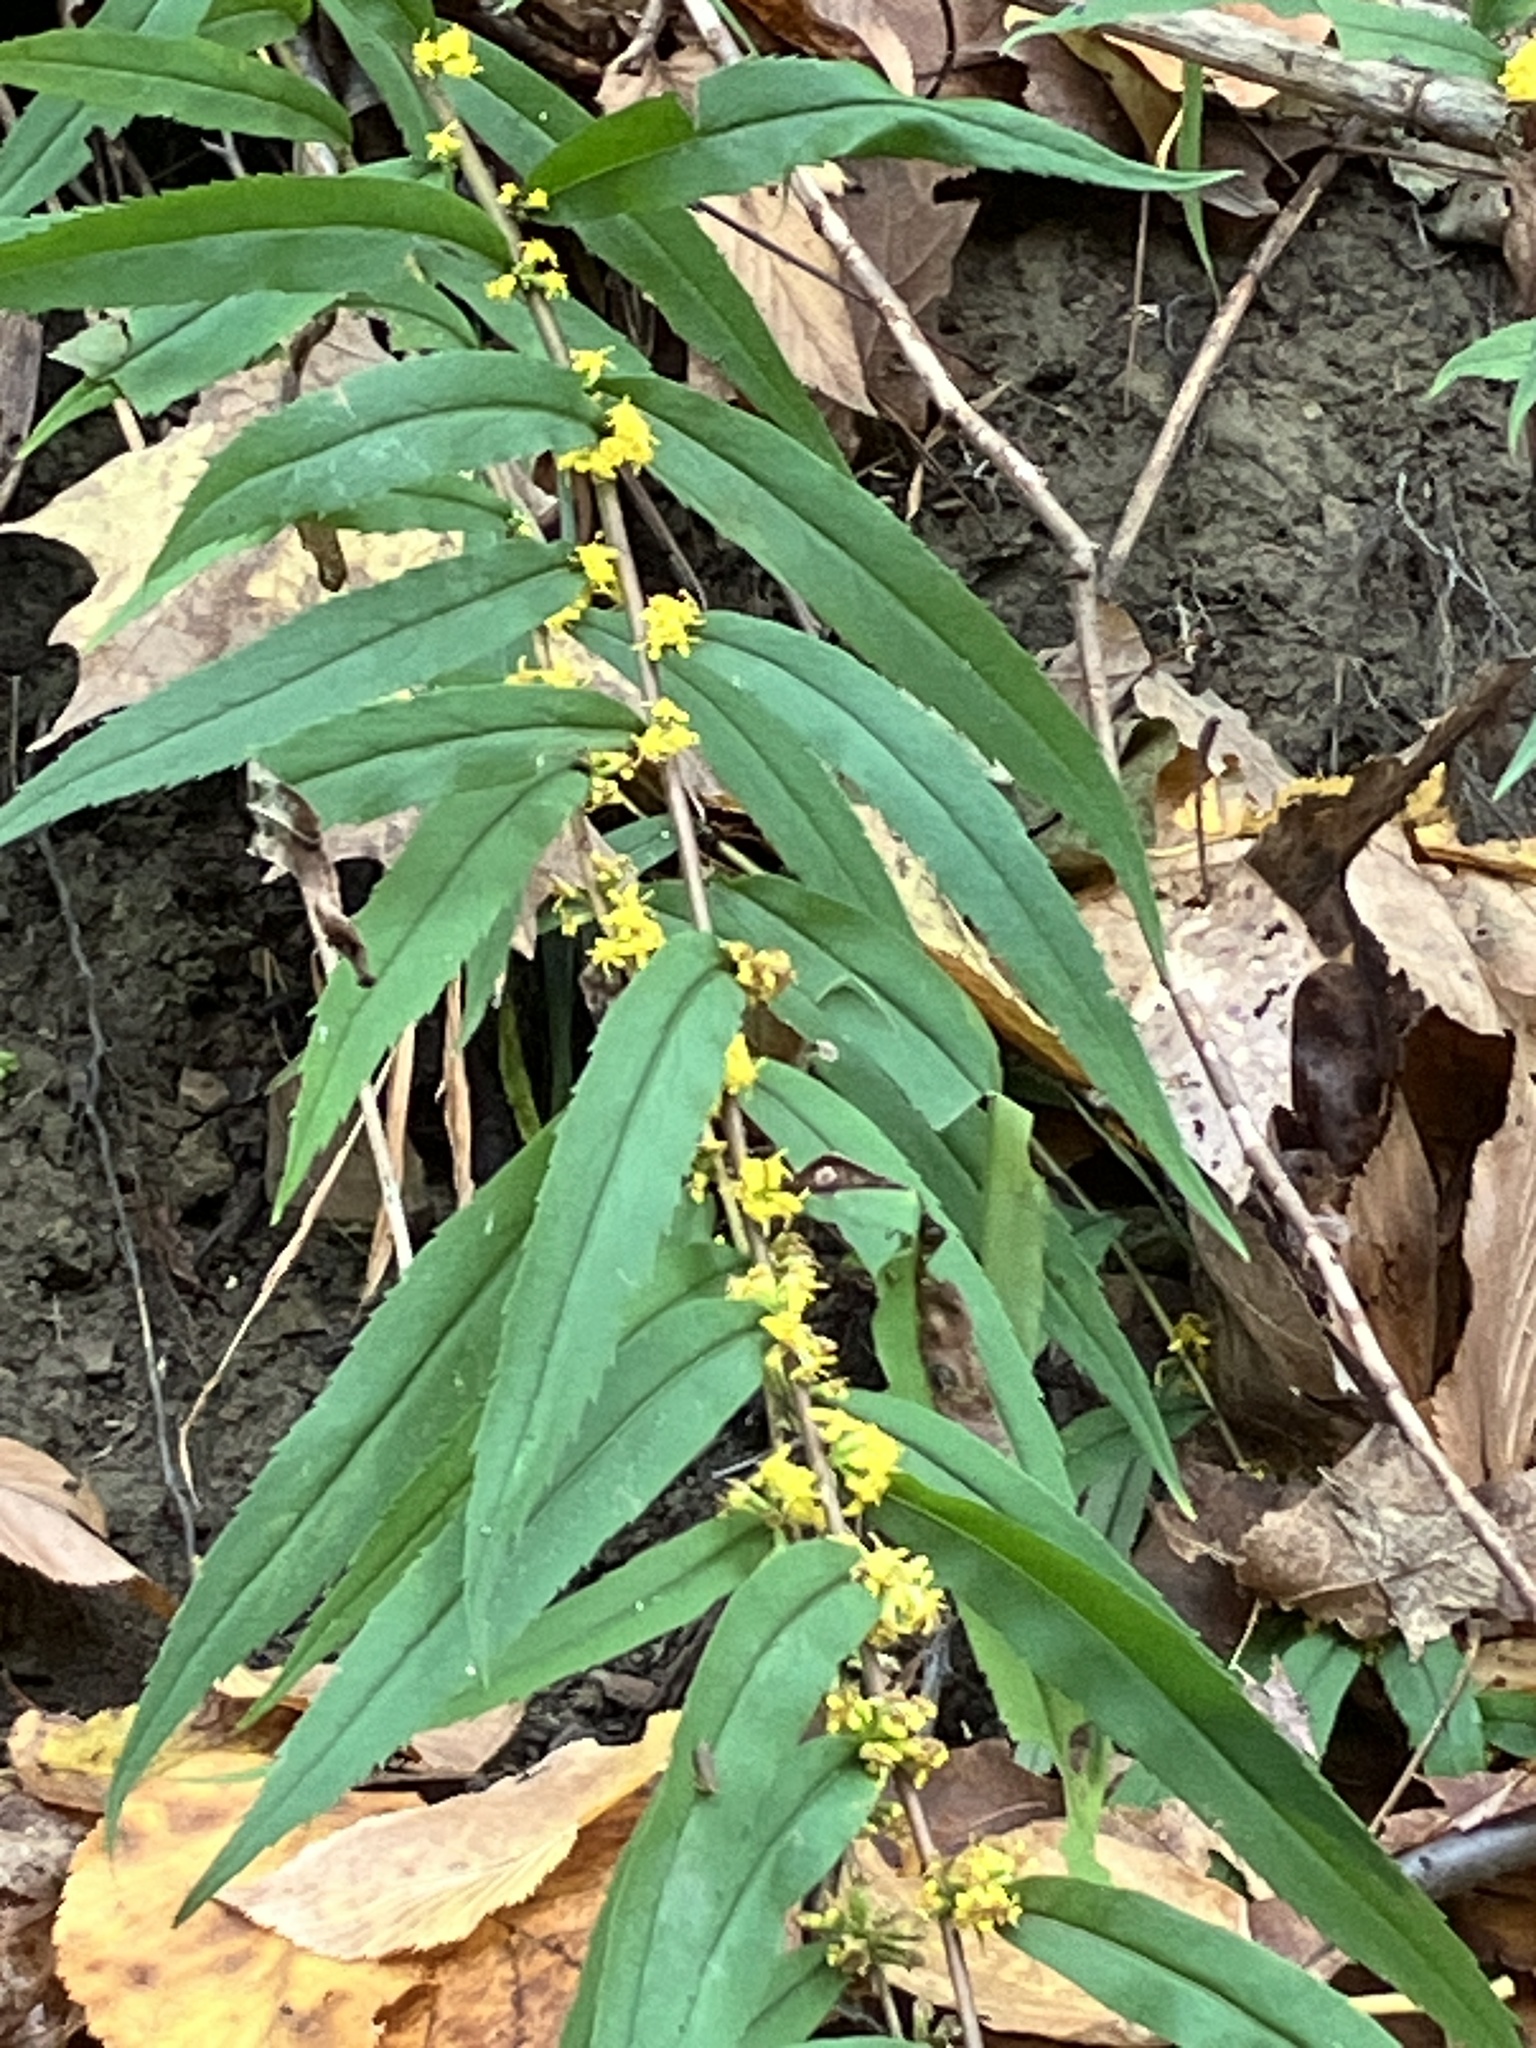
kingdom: Plantae
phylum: Tracheophyta
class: Magnoliopsida
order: Asterales
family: Asteraceae
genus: Solidago
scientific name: Solidago caesia
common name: Woodland goldenrod
